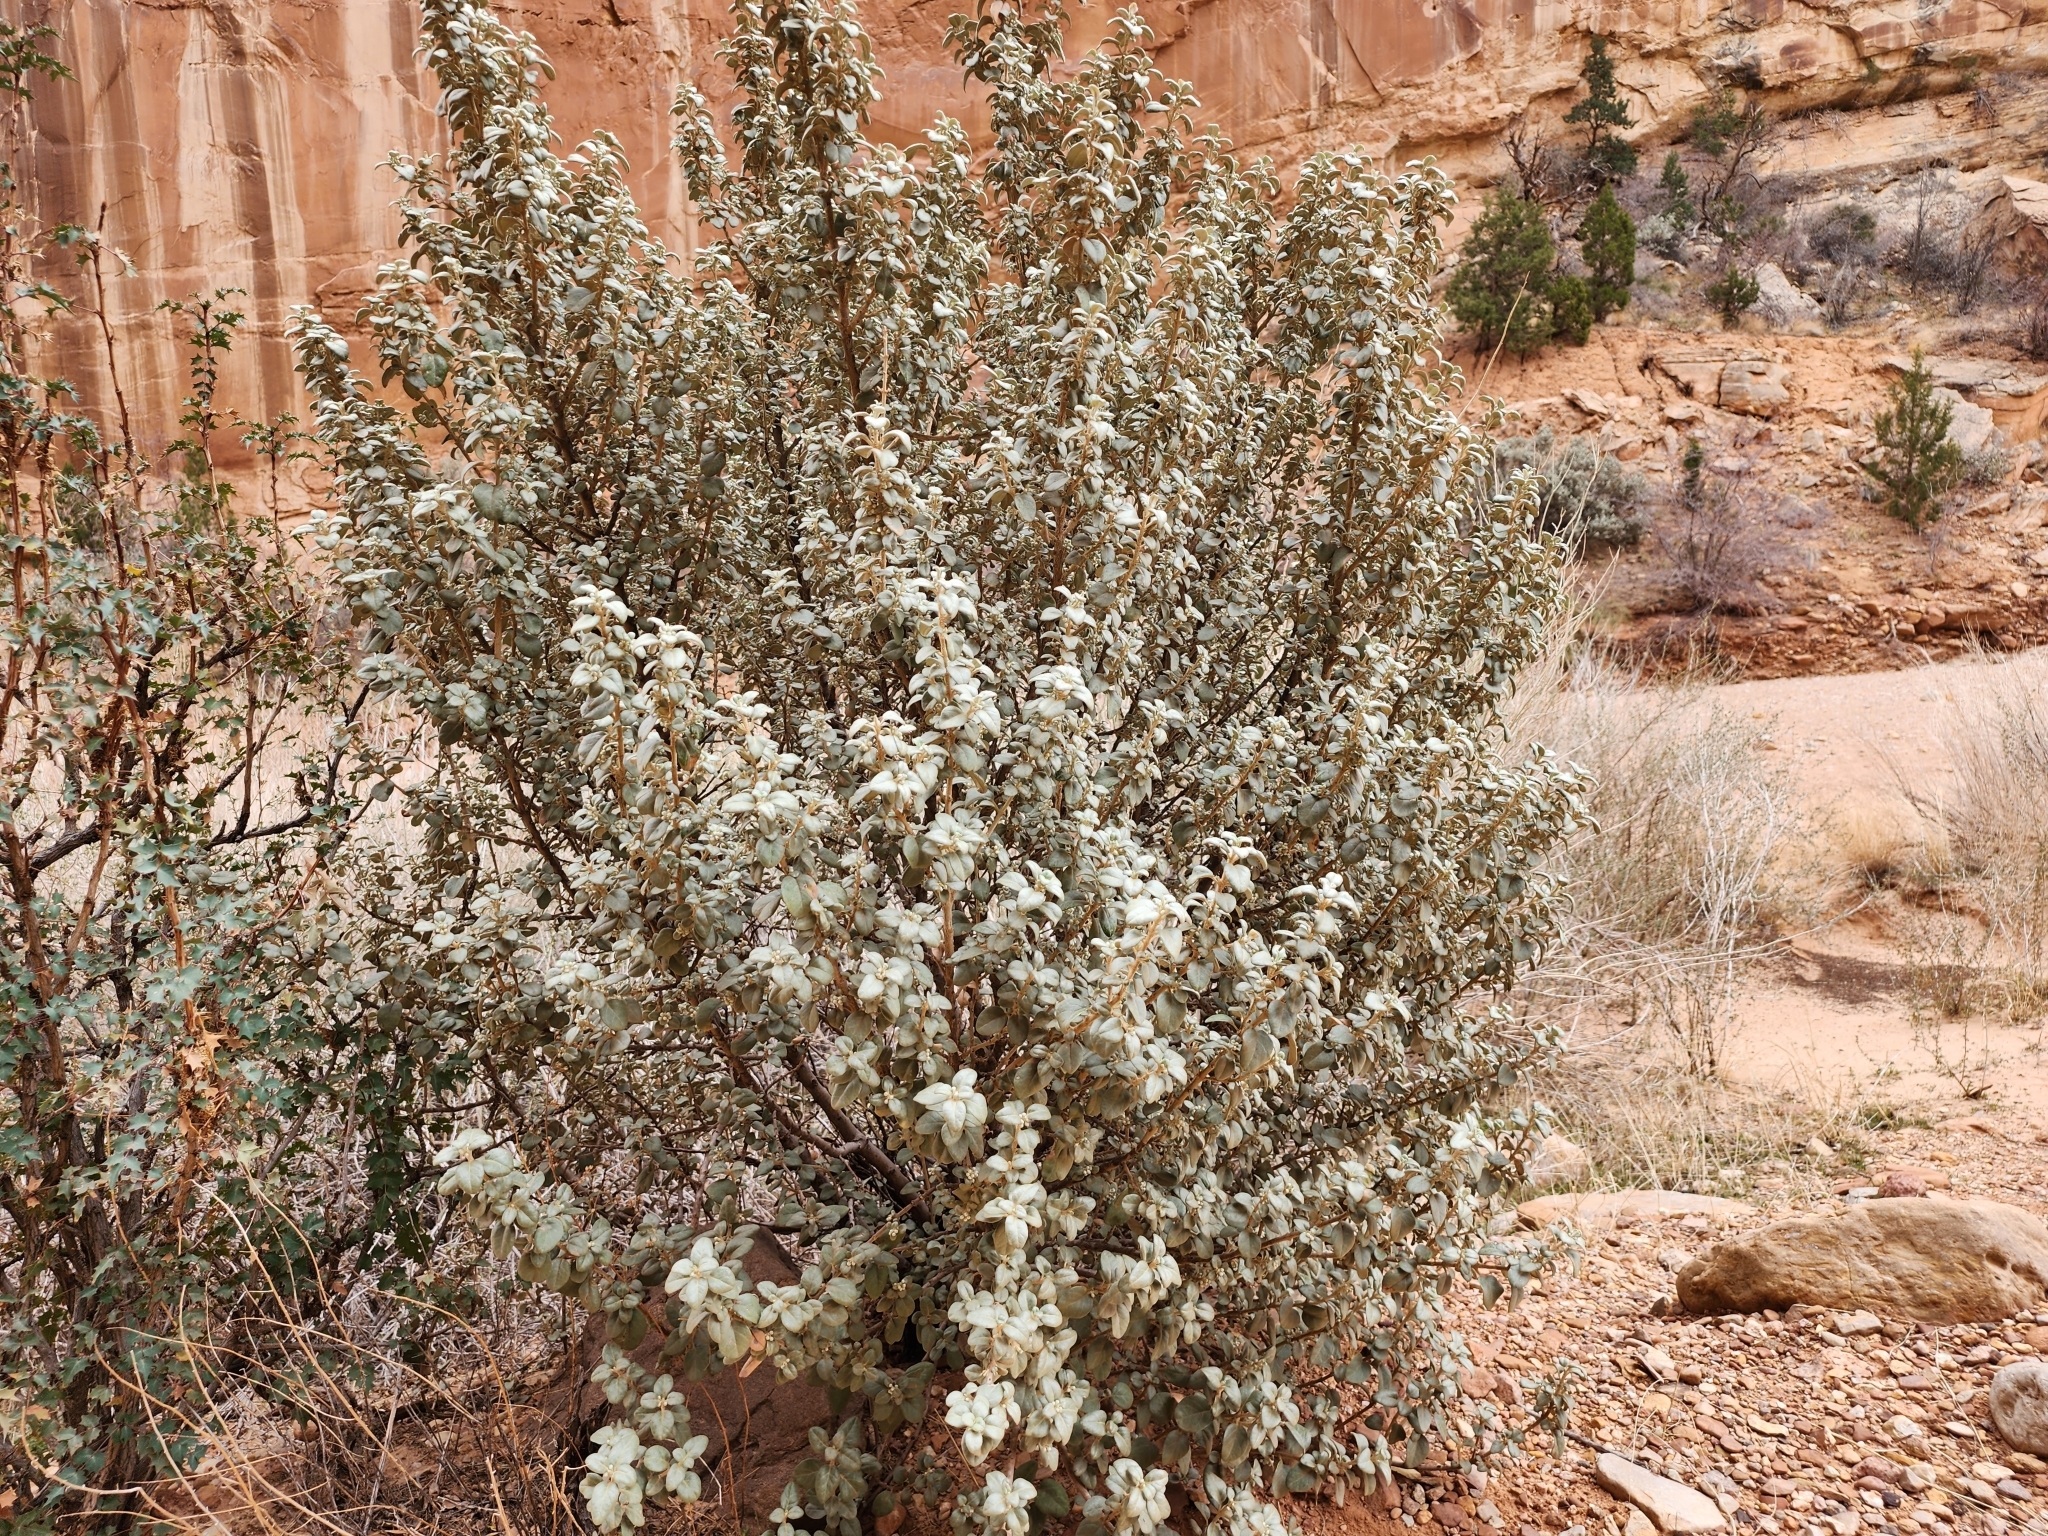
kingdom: Plantae
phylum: Tracheophyta
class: Magnoliopsida
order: Rosales
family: Elaeagnaceae
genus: Shepherdia
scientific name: Shepherdia rotundifolia
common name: Silverscale
